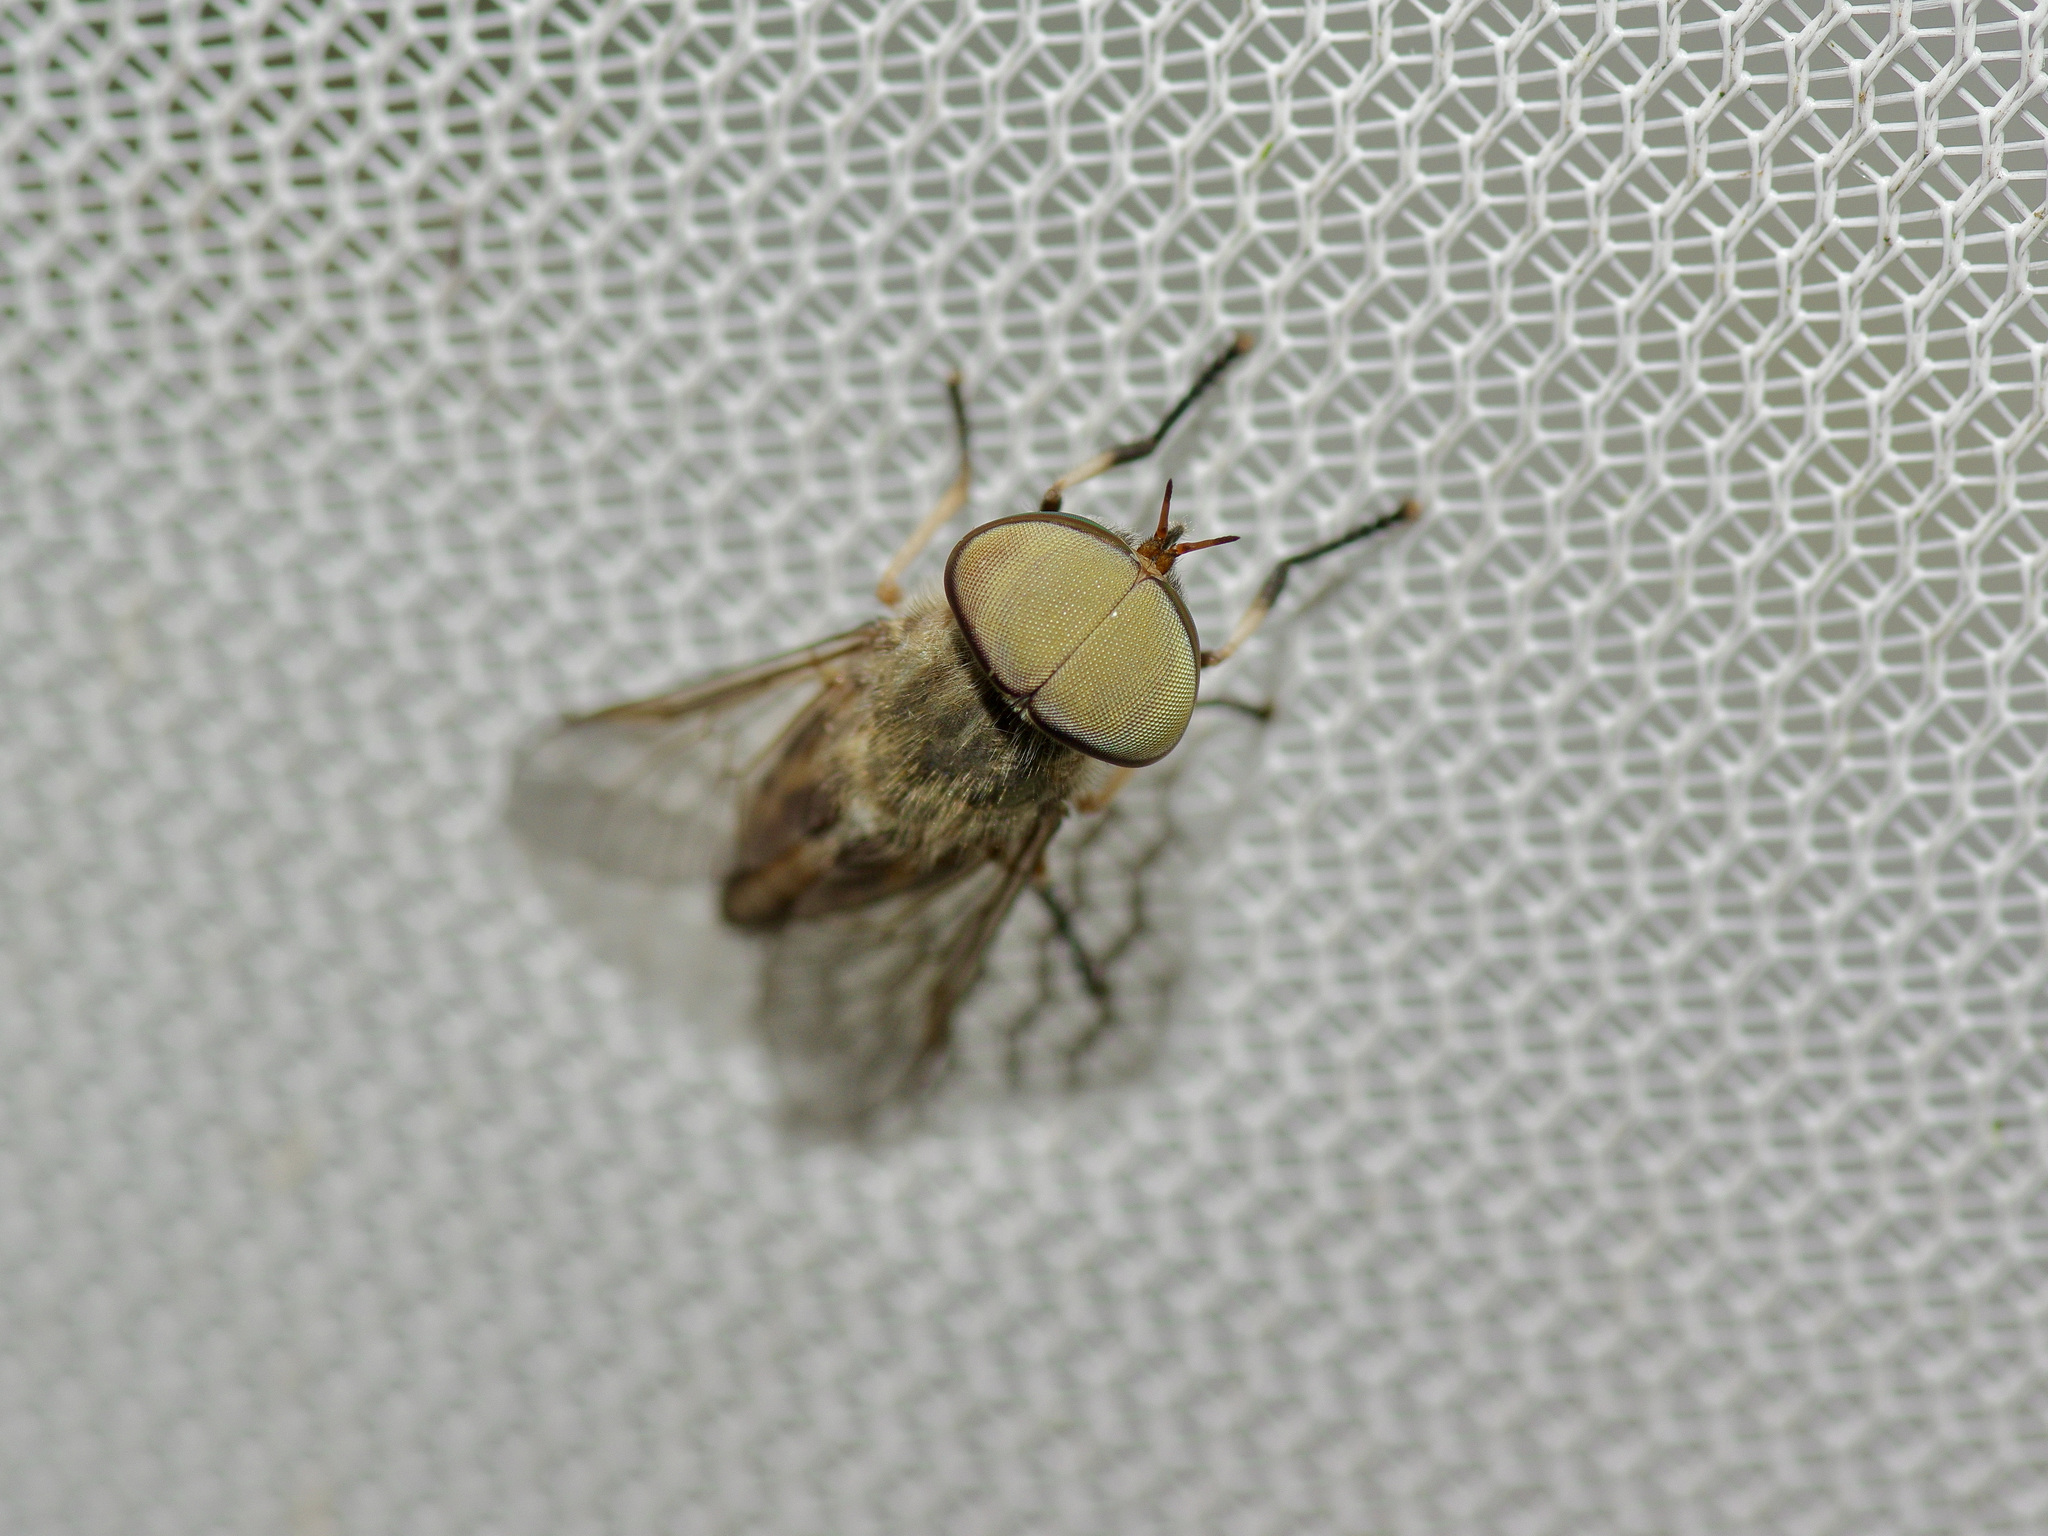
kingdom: Animalia
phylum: Arthropoda
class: Insecta
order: Diptera
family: Tabanidae
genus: Tabanus
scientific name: Tabanus lineola
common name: Striped horse fly
